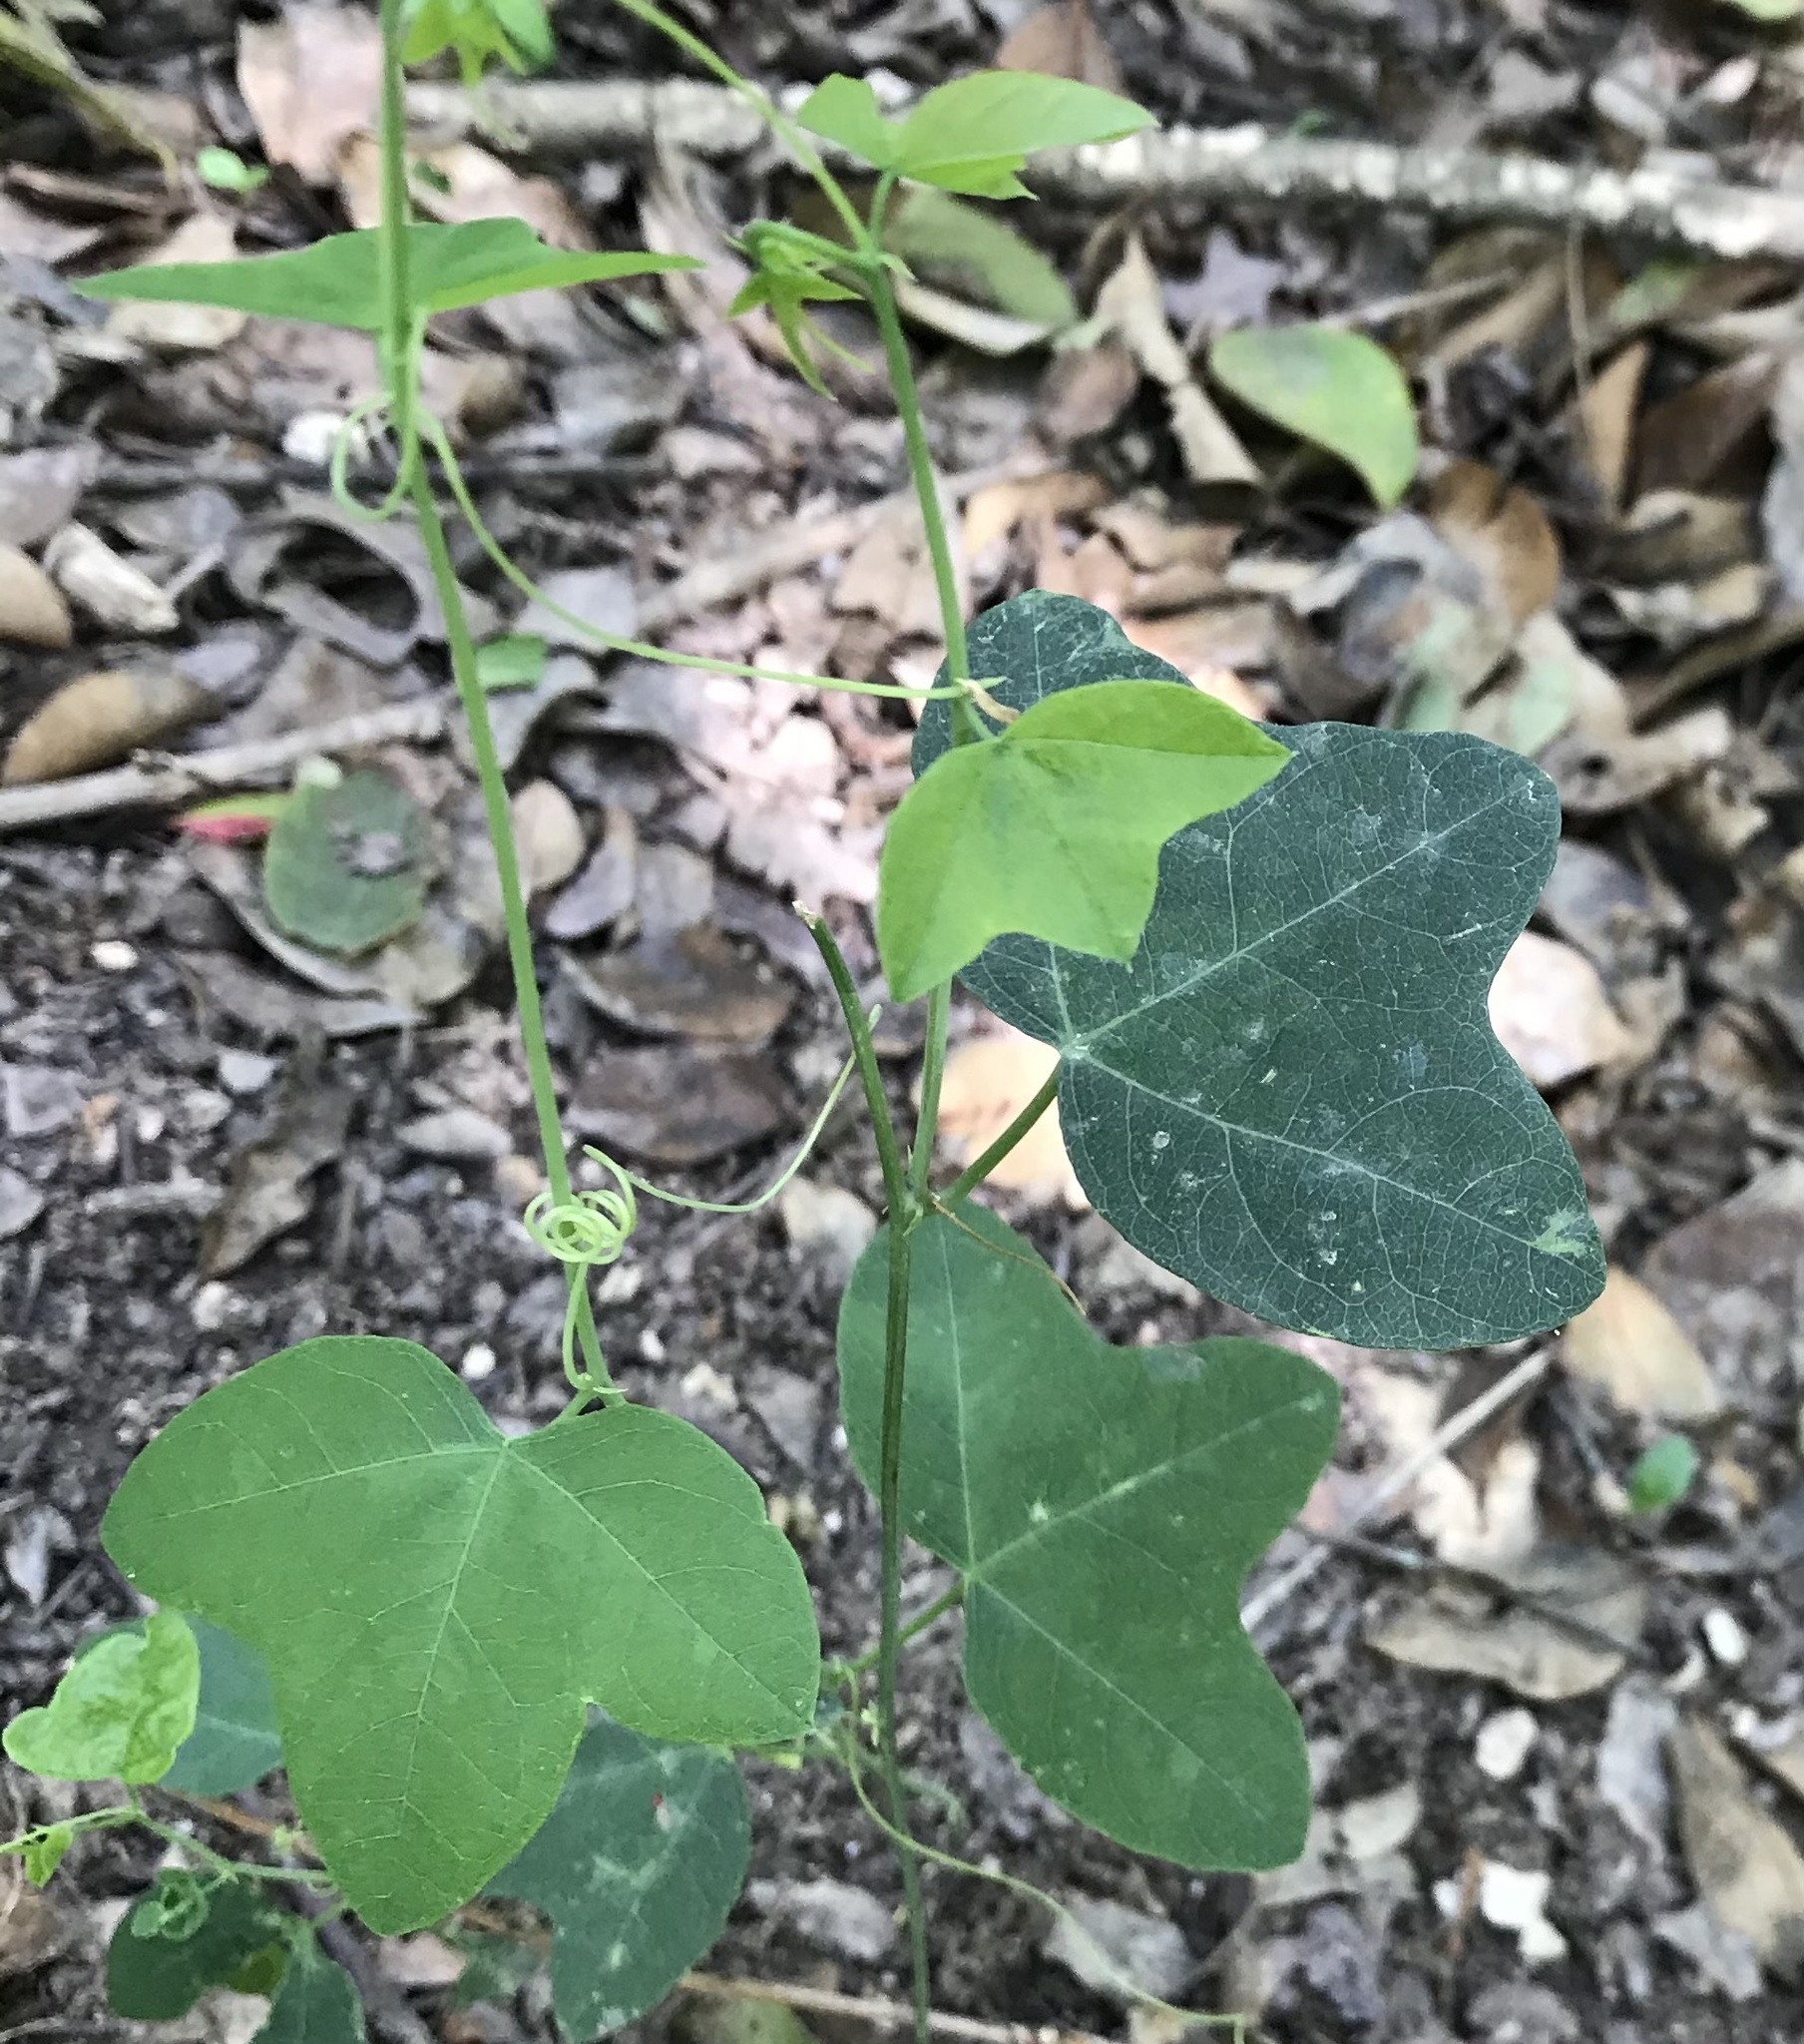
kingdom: Plantae
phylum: Tracheophyta
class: Magnoliopsida
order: Malpighiales
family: Passifloraceae
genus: Passiflora
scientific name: Passiflora lutea
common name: Yellow passionflower
